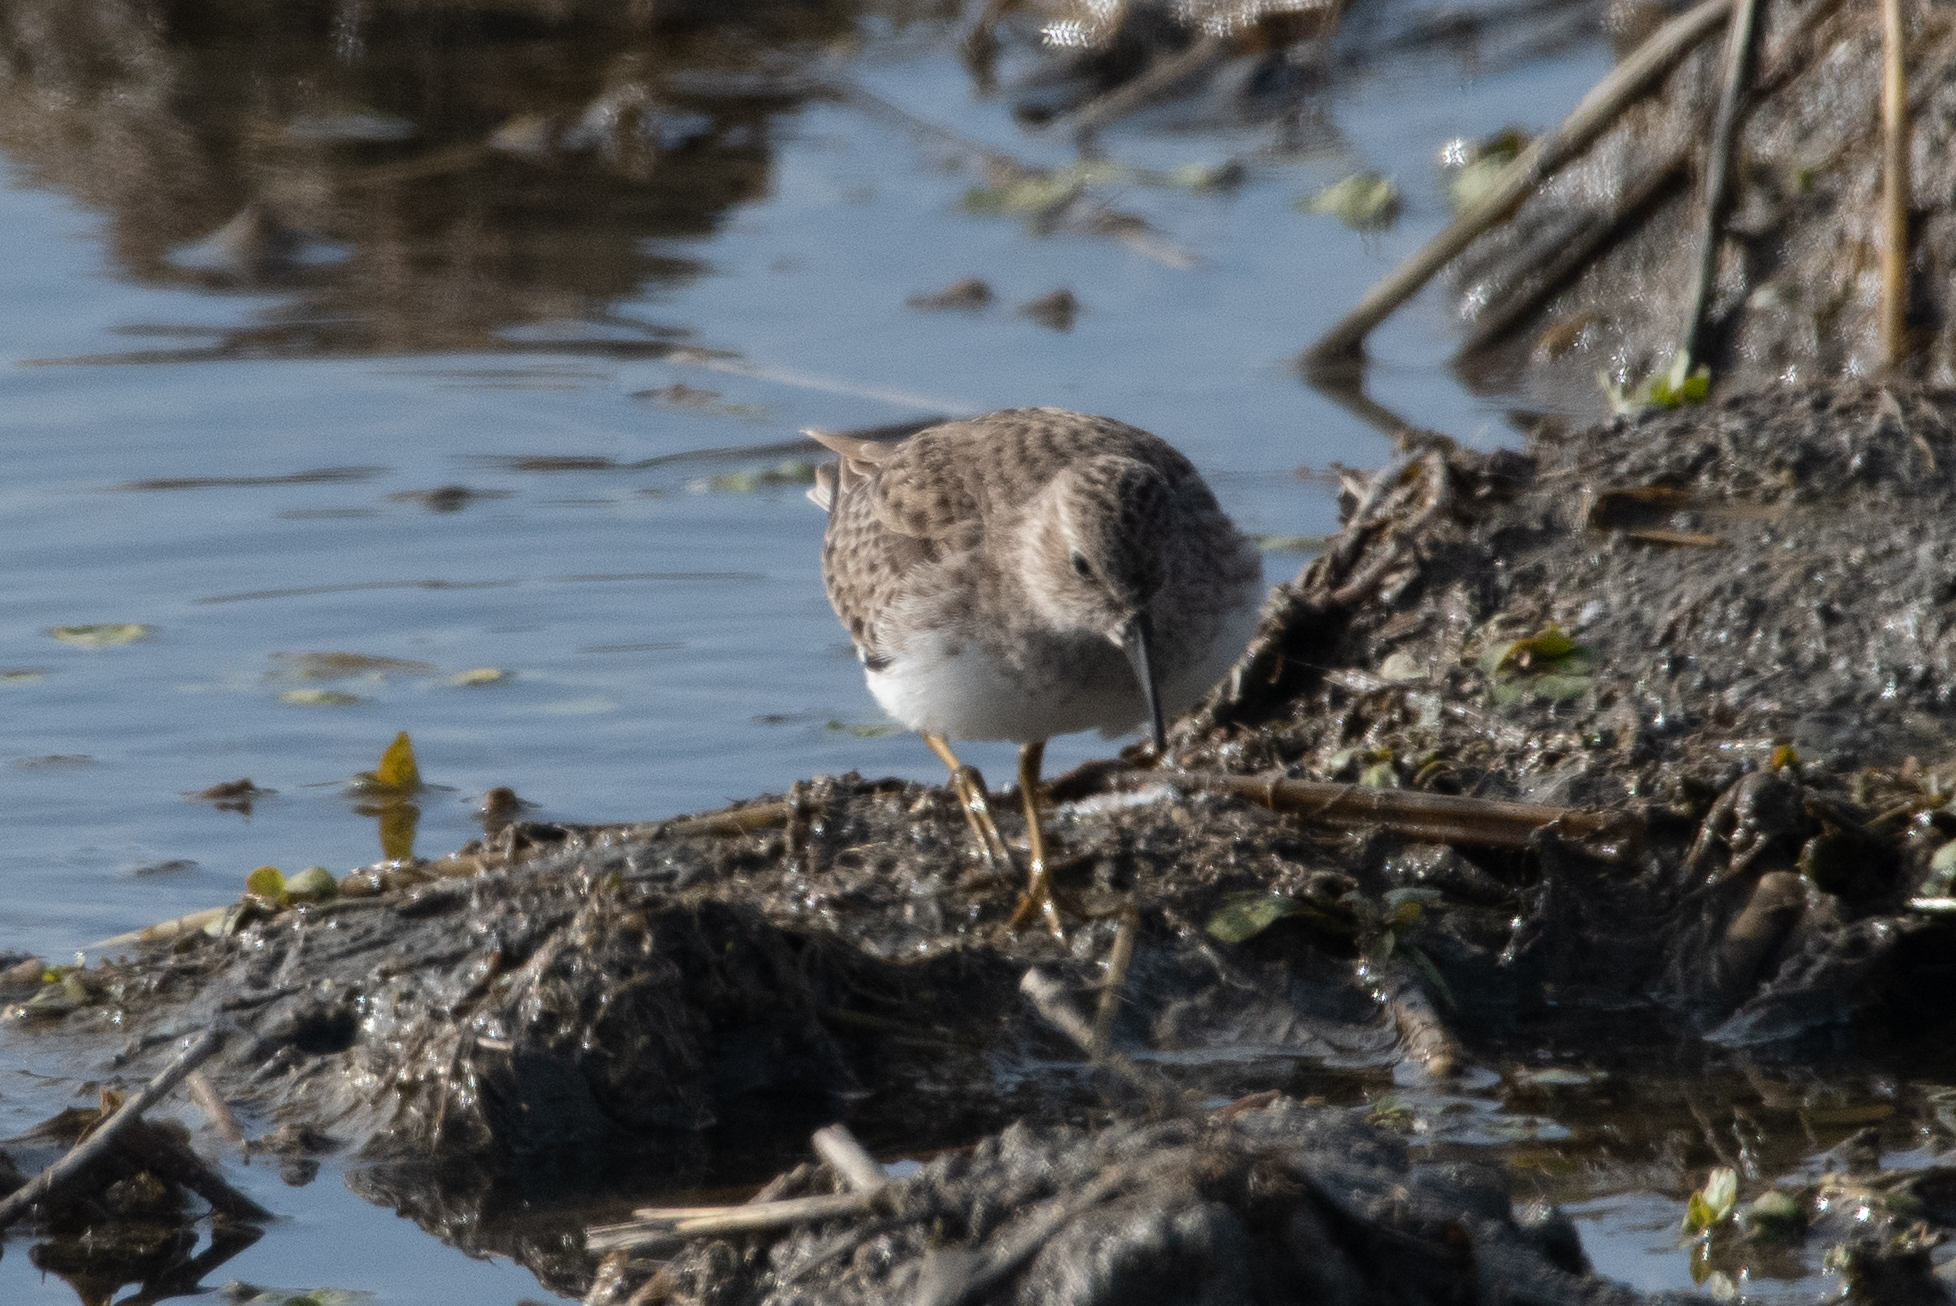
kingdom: Animalia
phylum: Chordata
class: Aves
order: Charadriiformes
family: Scolopacidae
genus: Calidris
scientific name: Calidris minutilla
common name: Least sandpiper
